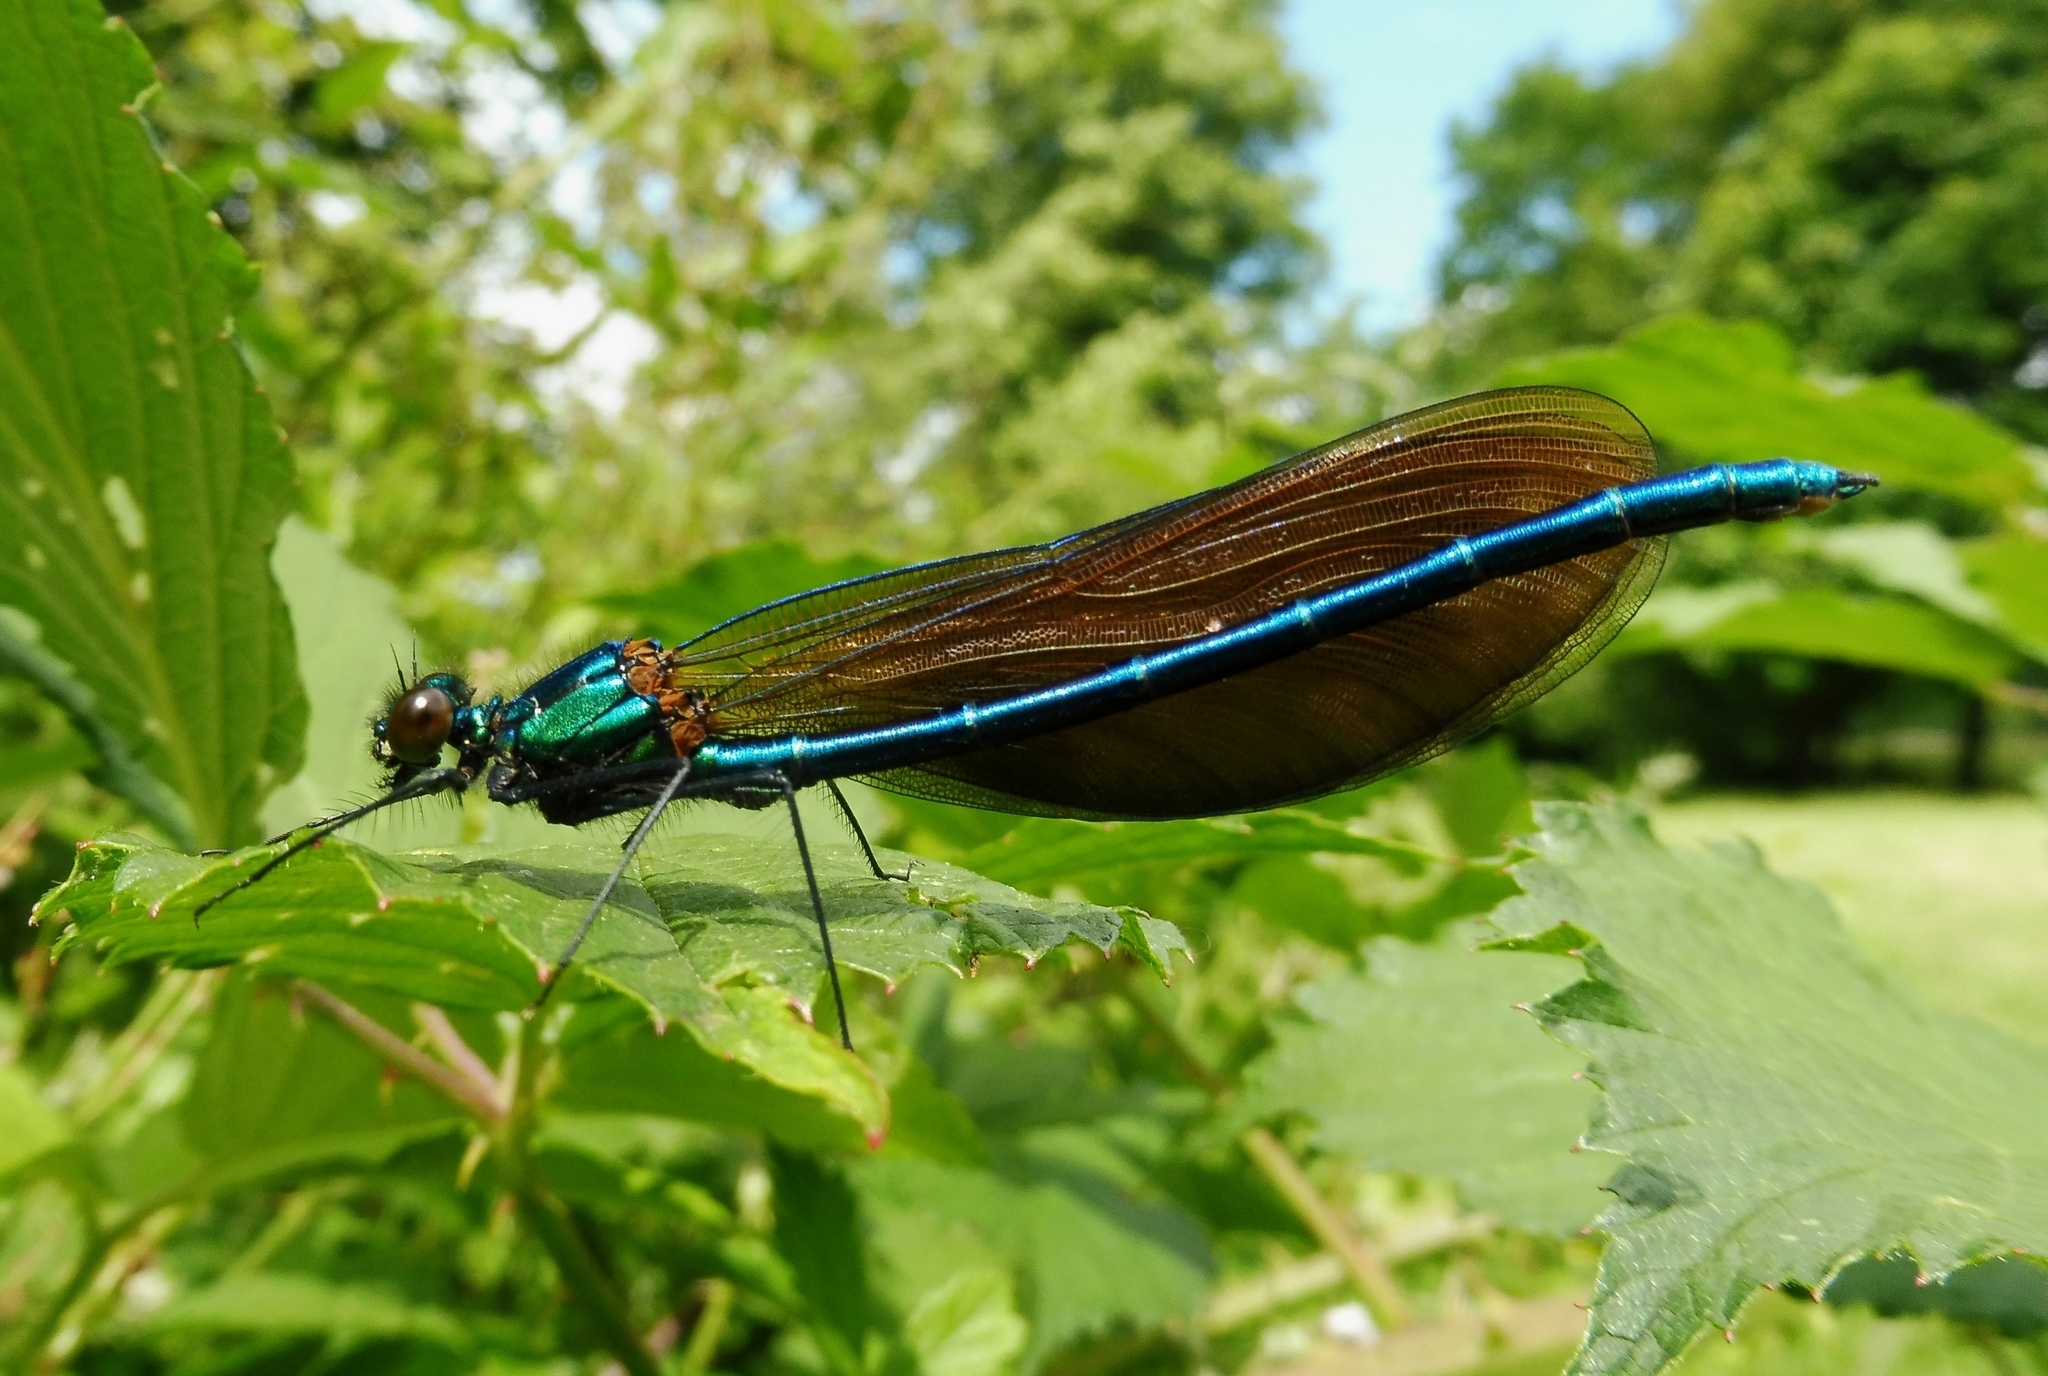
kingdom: Animalia
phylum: Arthropoda
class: Insecta
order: Odonata
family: Calopterygidae
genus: Calopteryx
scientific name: Calopteryx virgo
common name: Beautiful demoiselle
